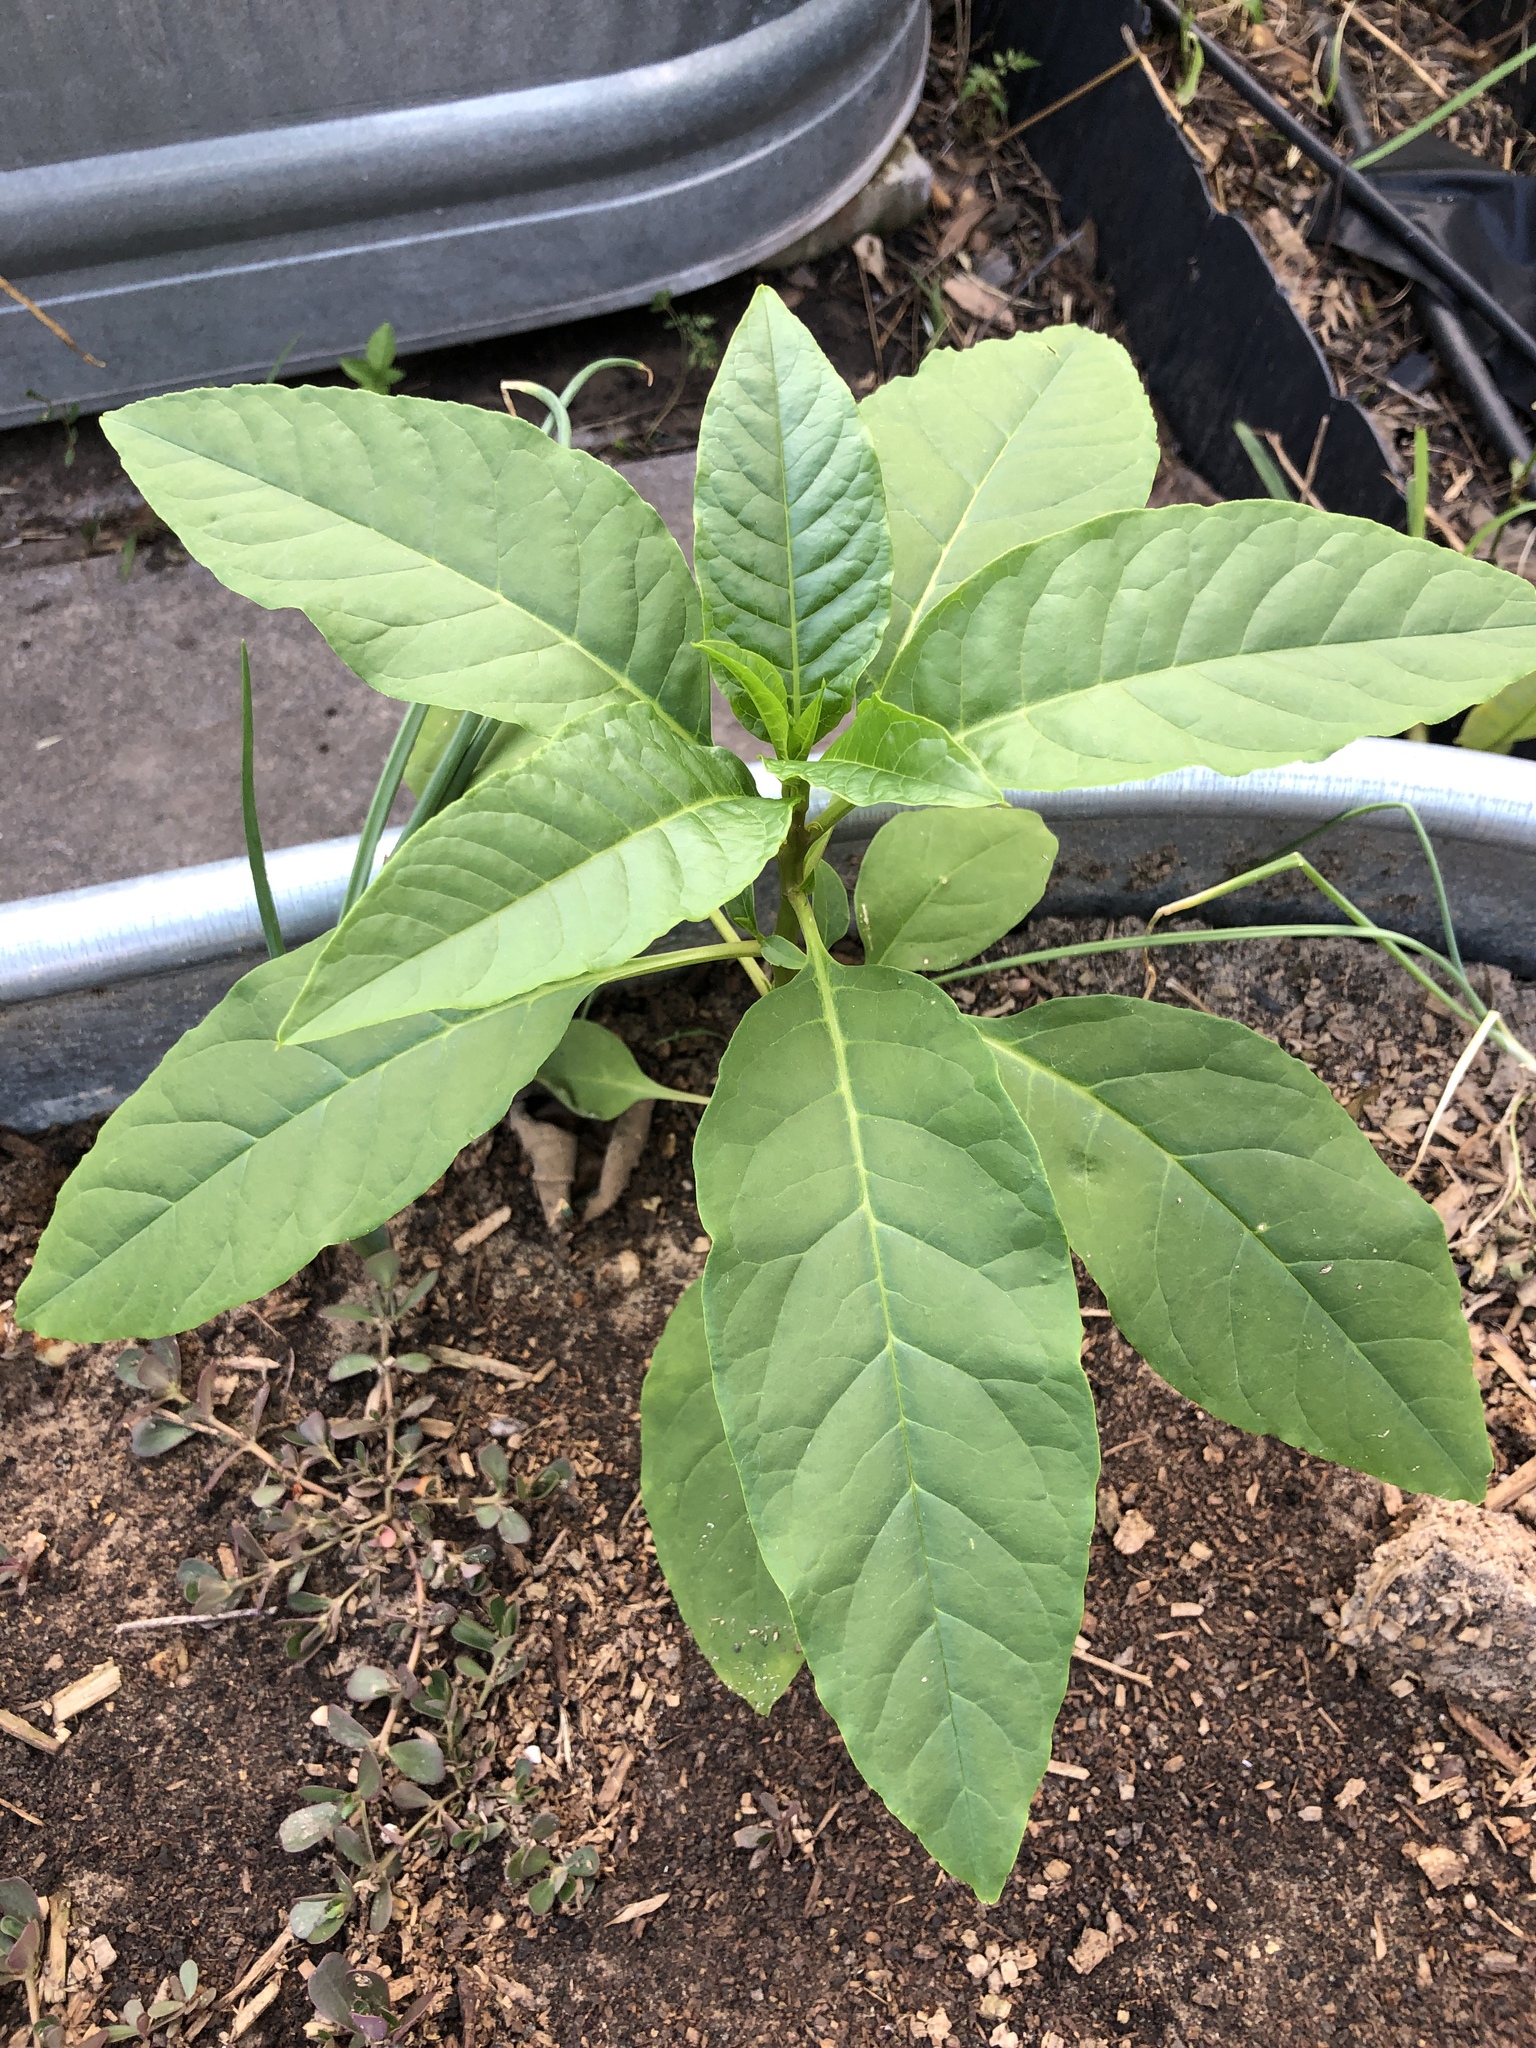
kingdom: Plantae
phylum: Tracheophyta
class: Magnoliopsida
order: Caryophyllales
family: Phytolaccaceae
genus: Phytolacca
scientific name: Phytolacca americana
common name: American pokeweed
